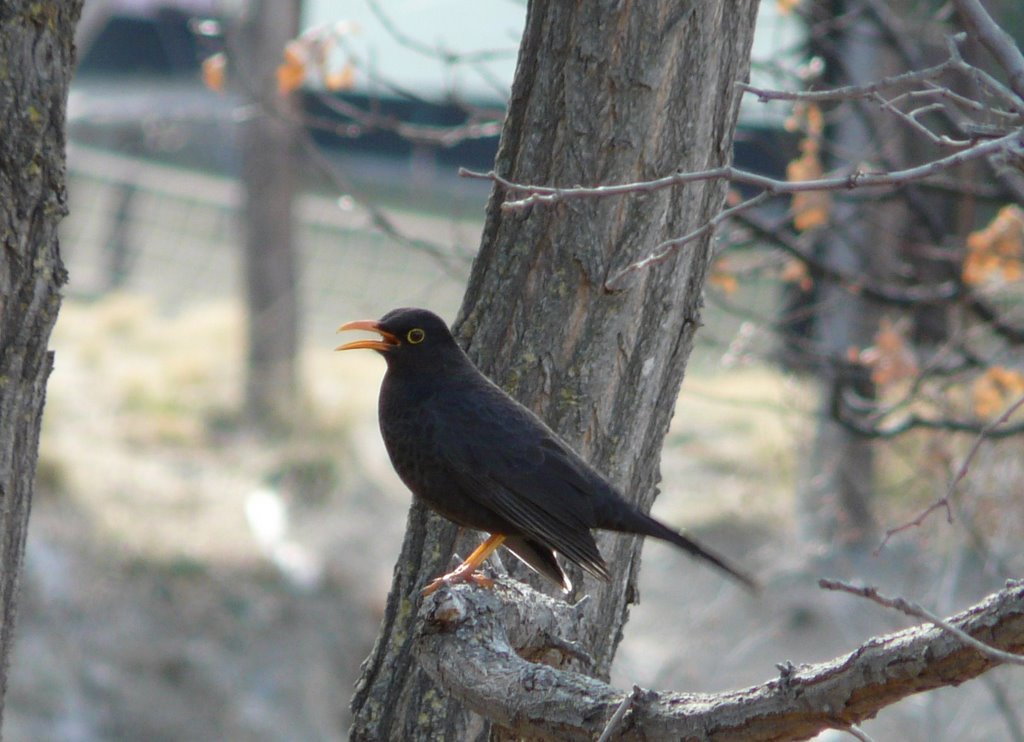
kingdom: Animalia
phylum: Chordata
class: Aves
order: Passeriformes
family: Turdidae
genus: Turdus
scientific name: Turdus chiguanco
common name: Chiguanco thrush
